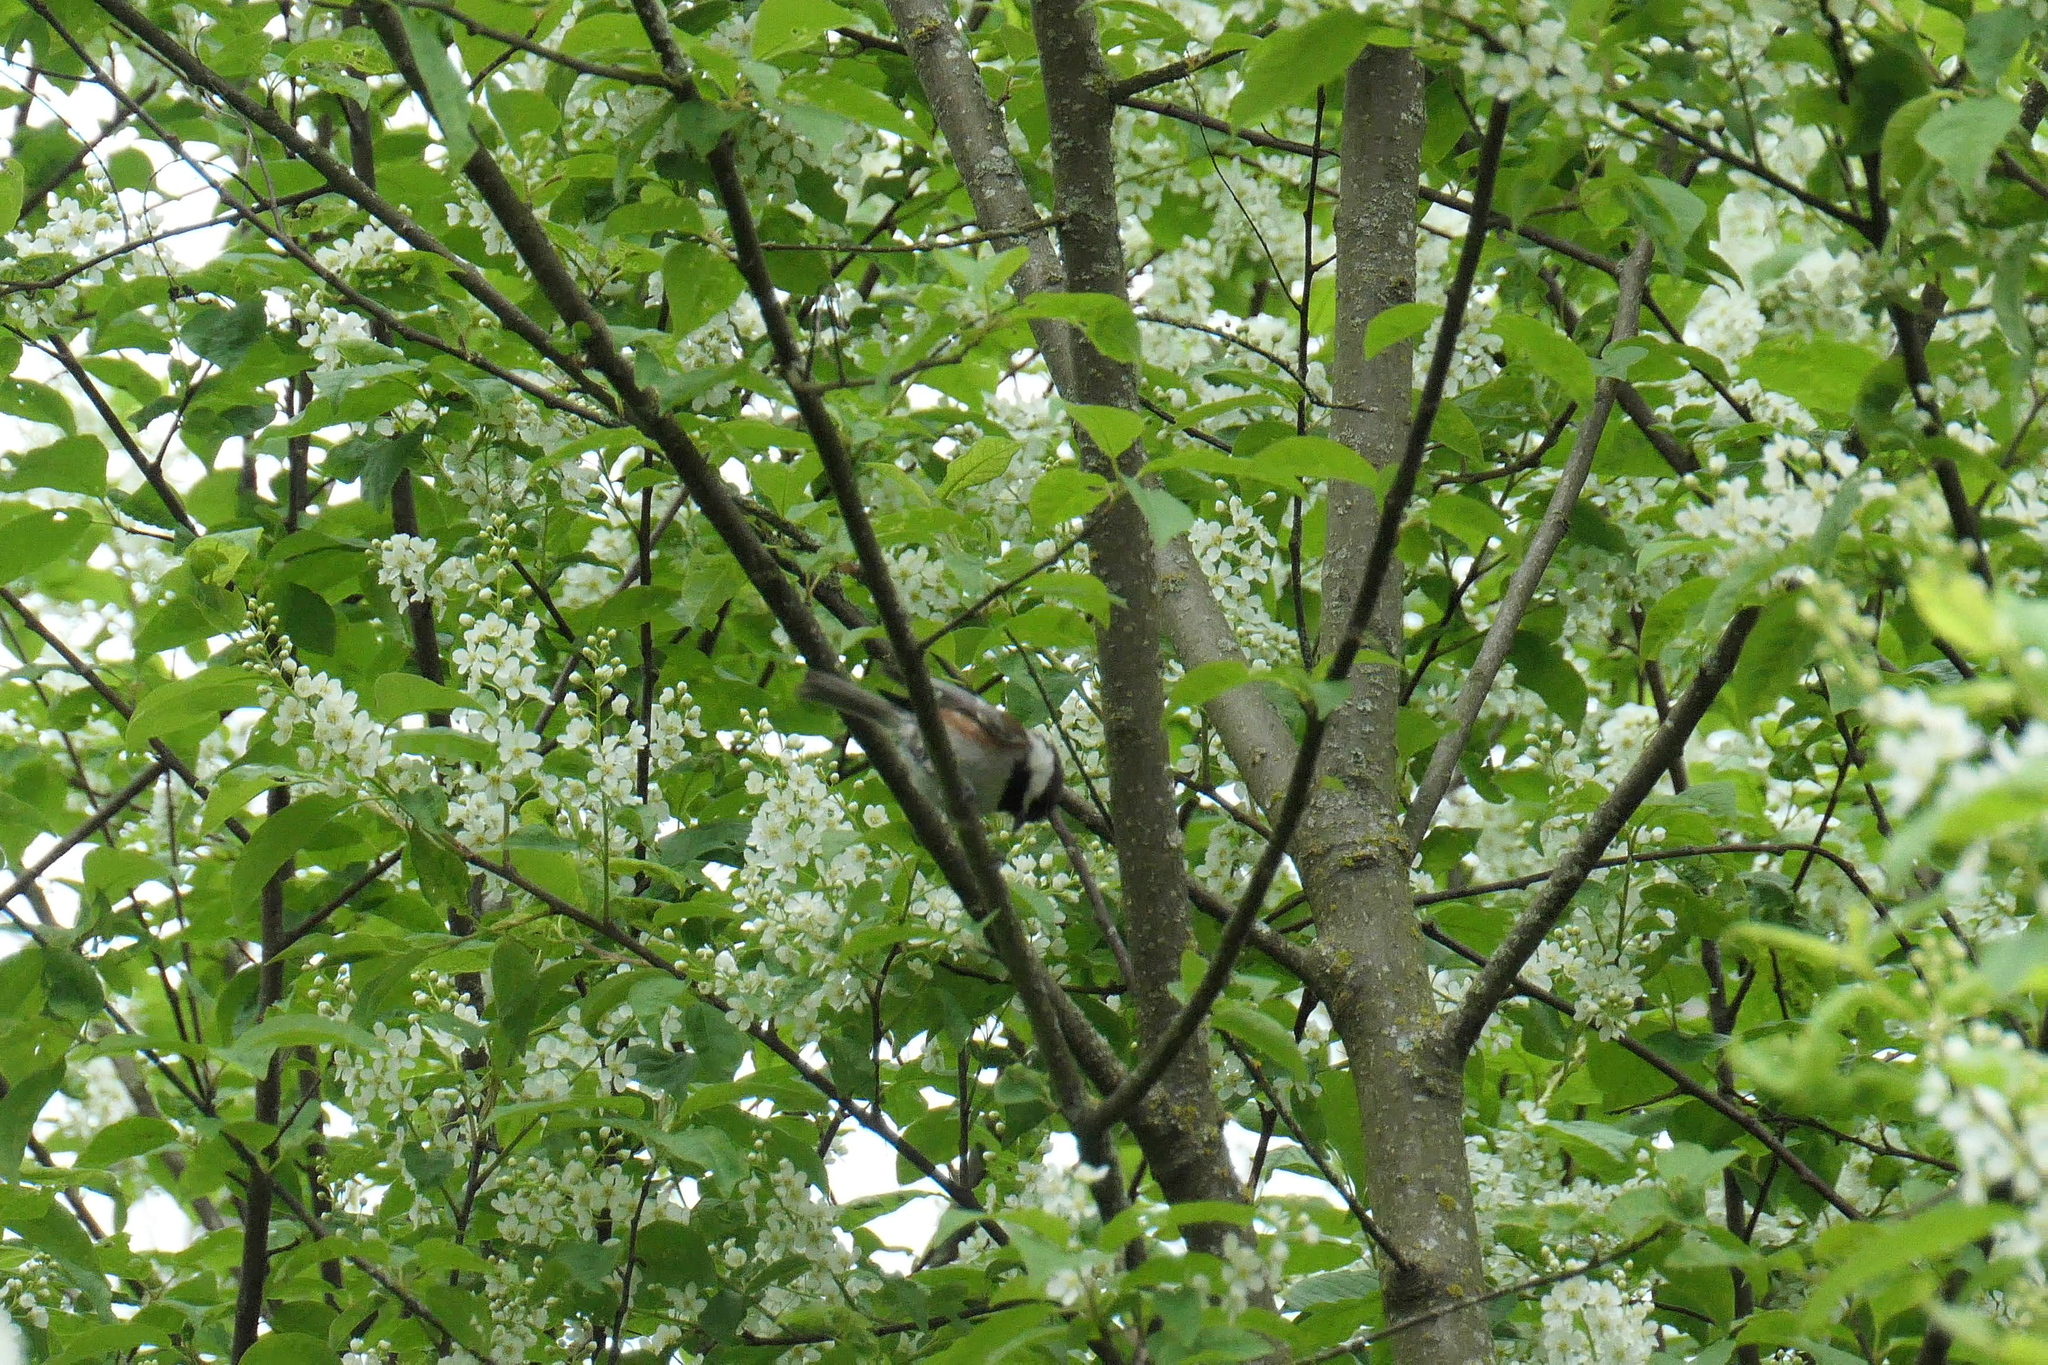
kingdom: Animalia
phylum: Chordata
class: Aves
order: Passeriformes
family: Paridae
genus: Poecile
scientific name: Poecile rufescens
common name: Chestnut-backed chickadee
